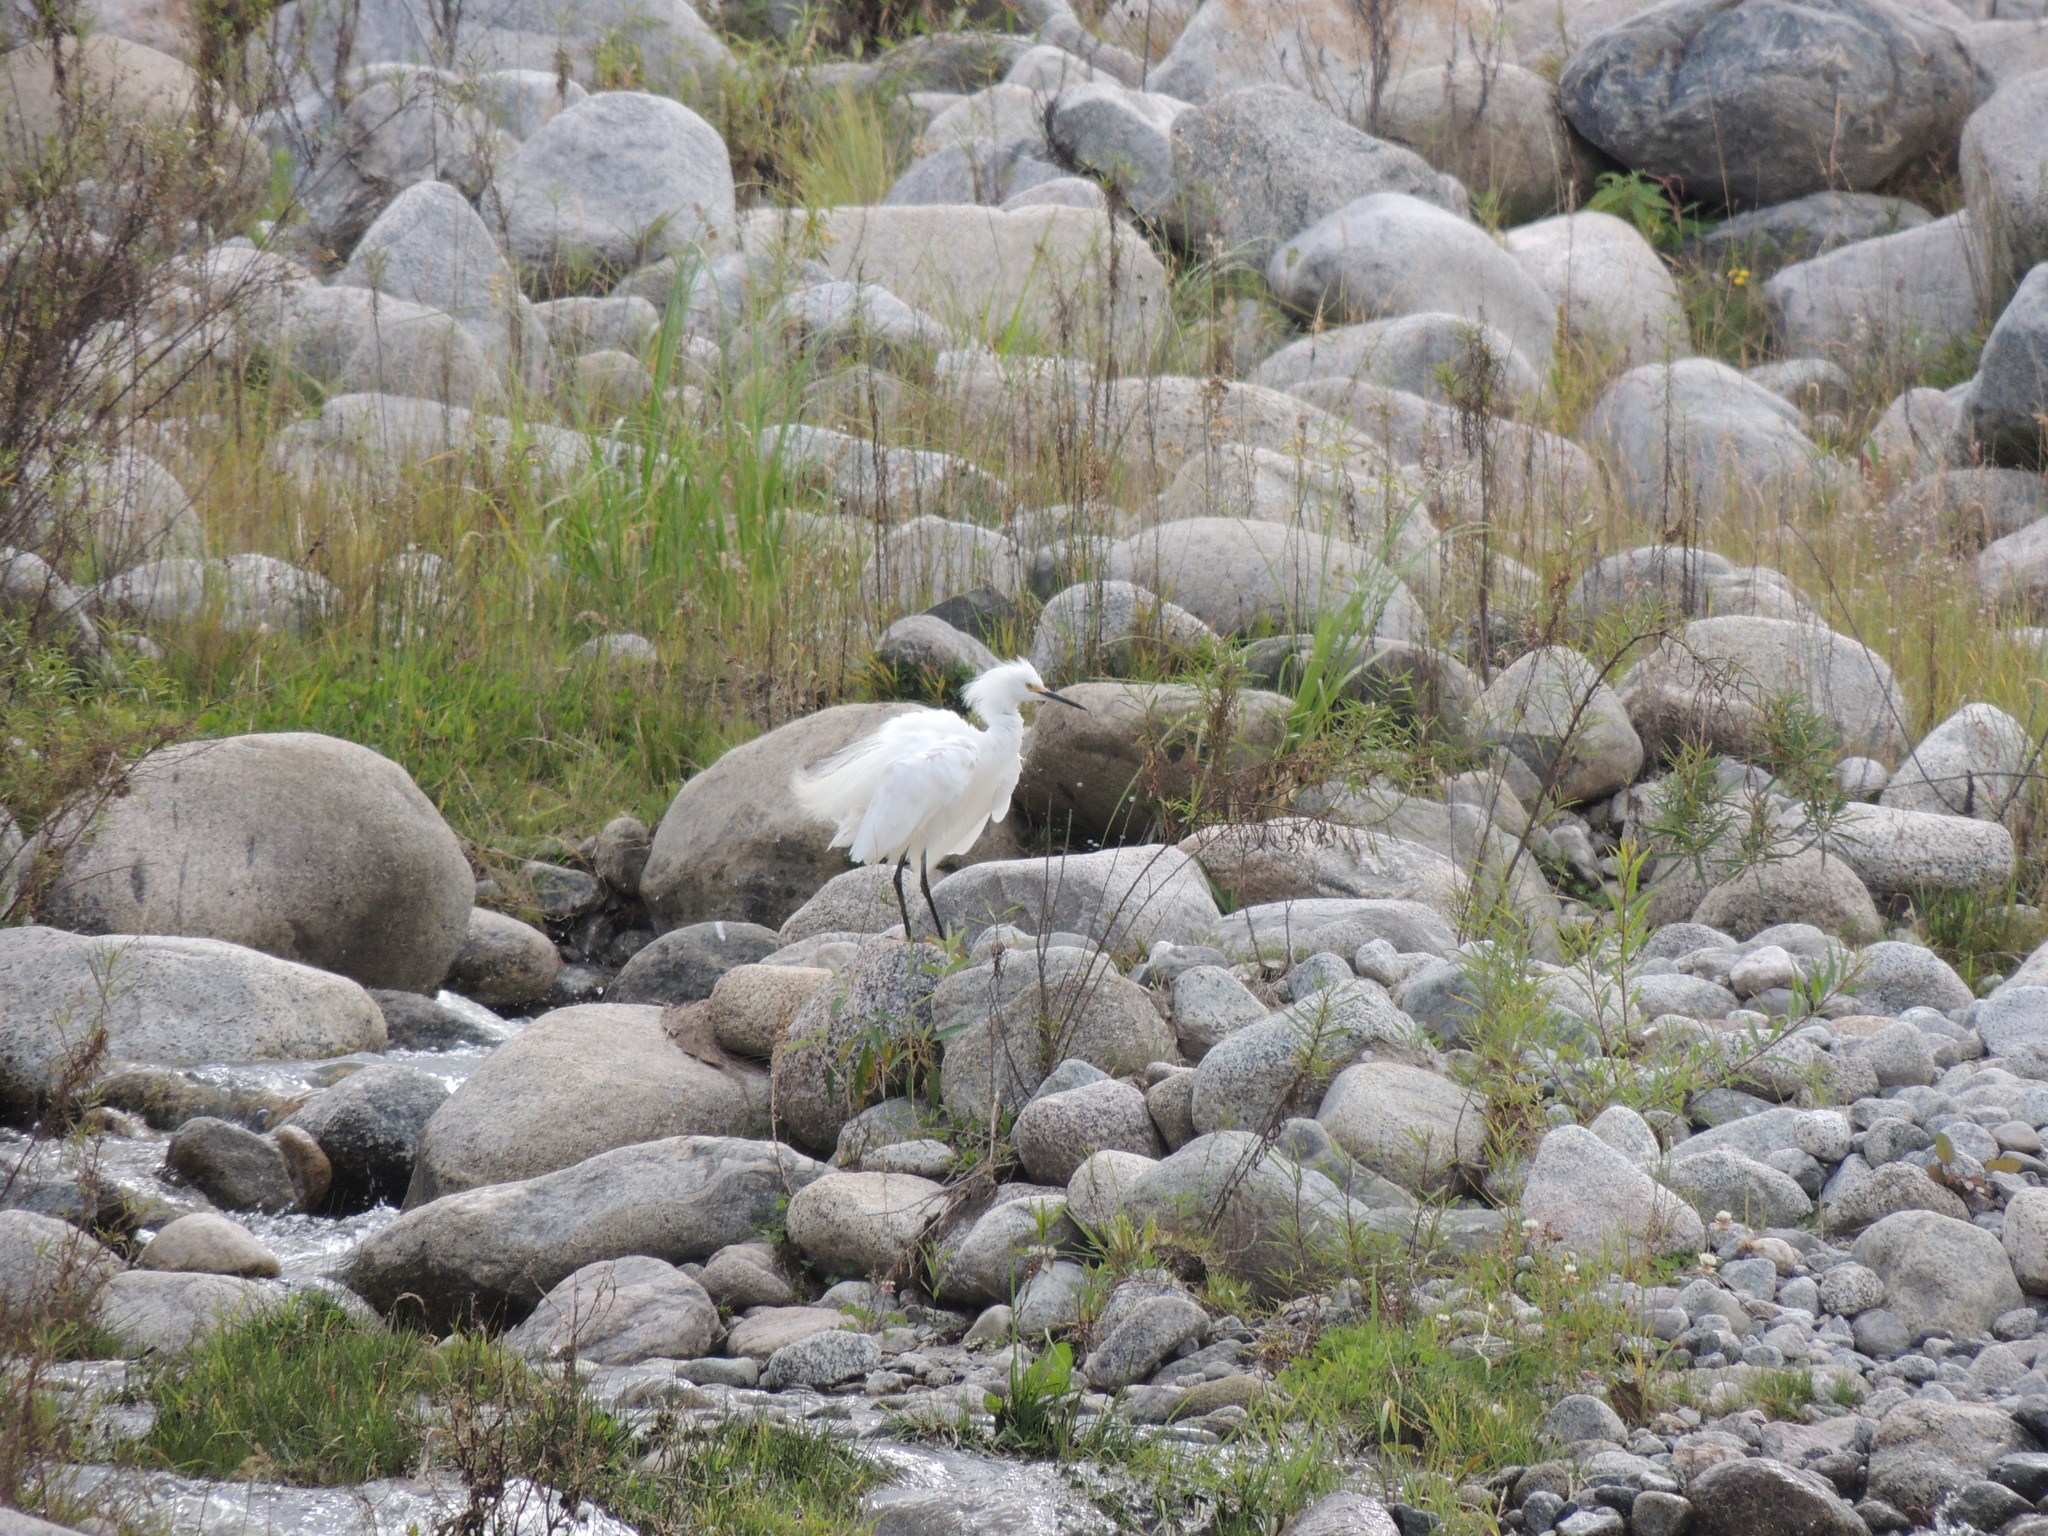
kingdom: Animalia
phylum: Chordata
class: Aves
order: Pelecaniformes
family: Ardeidae
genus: Egretta
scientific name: Egretta thula
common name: Snowy egret
